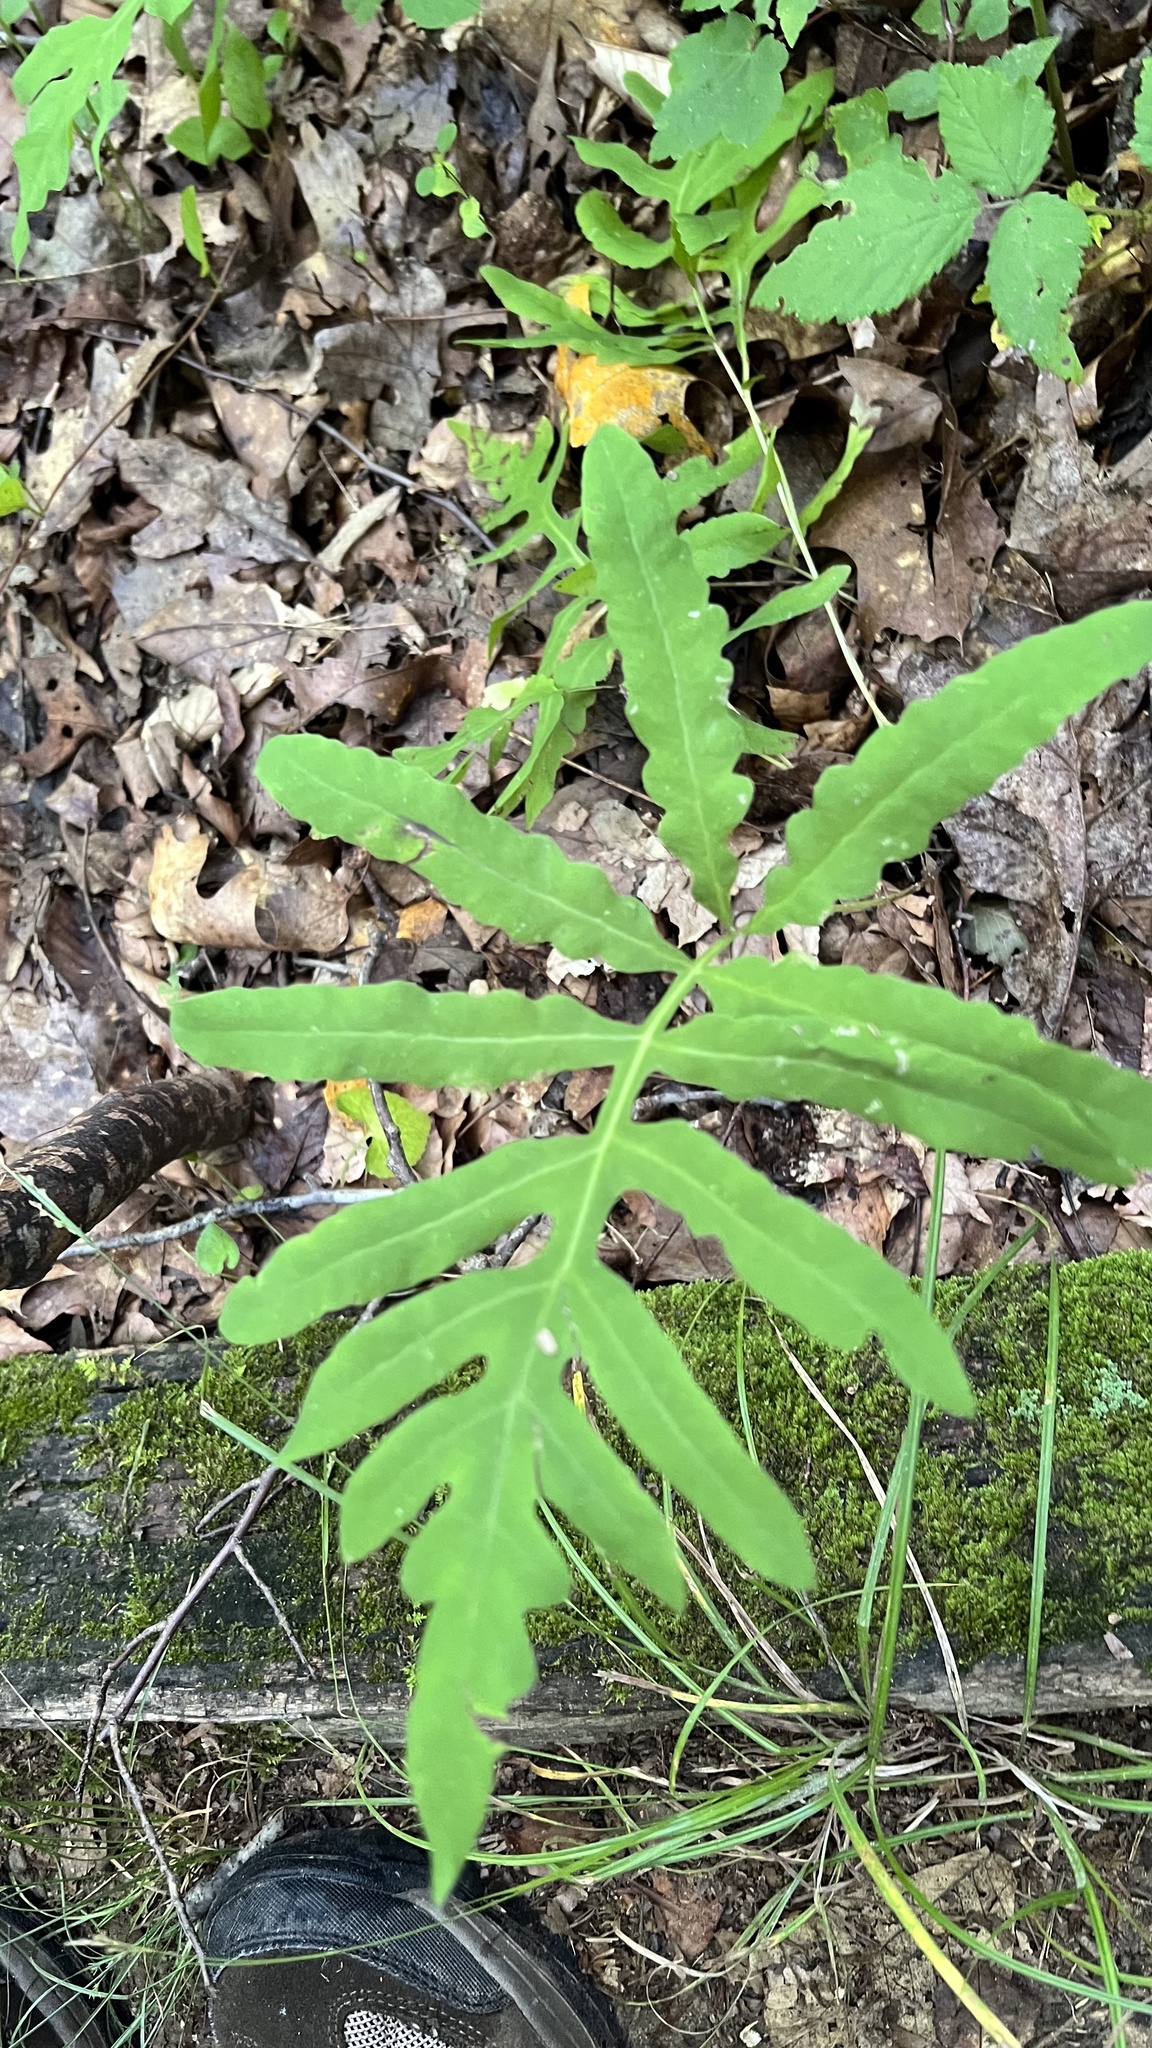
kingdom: Plantae
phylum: Tracheophyta
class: Polypodiopsida
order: Polypodiales
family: Onocleaceae
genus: Onoclea
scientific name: Onoclea sensibilis
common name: Sensitive fern
